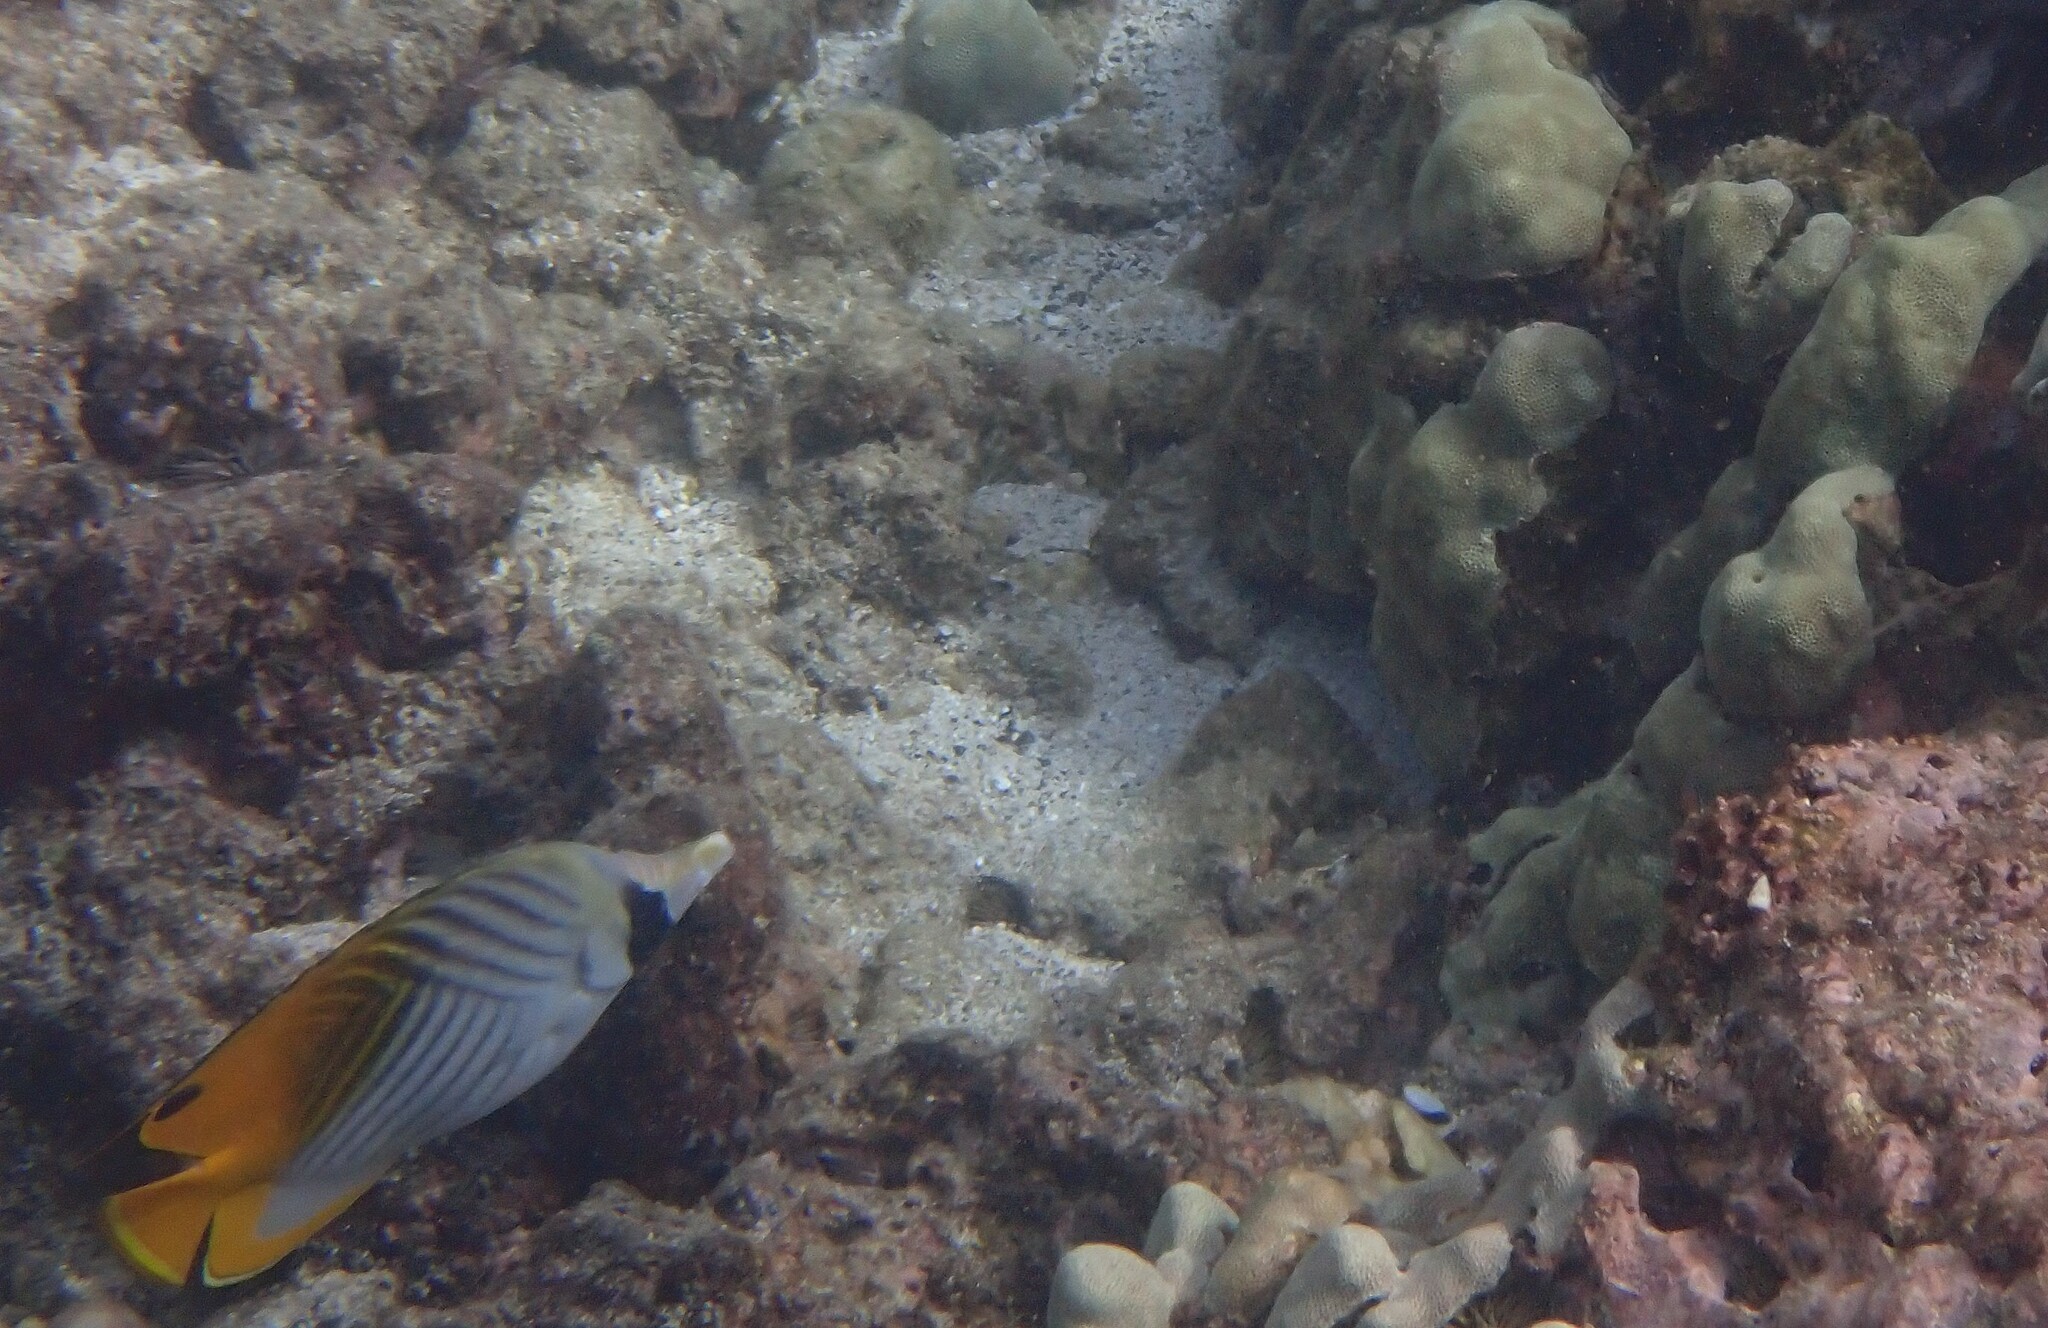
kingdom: Animalia
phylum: Chordata
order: Perciformes
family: Chaetodontidae
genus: Chaetodon
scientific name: Chaetodon auriga
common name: Threadfin butterflyfish
